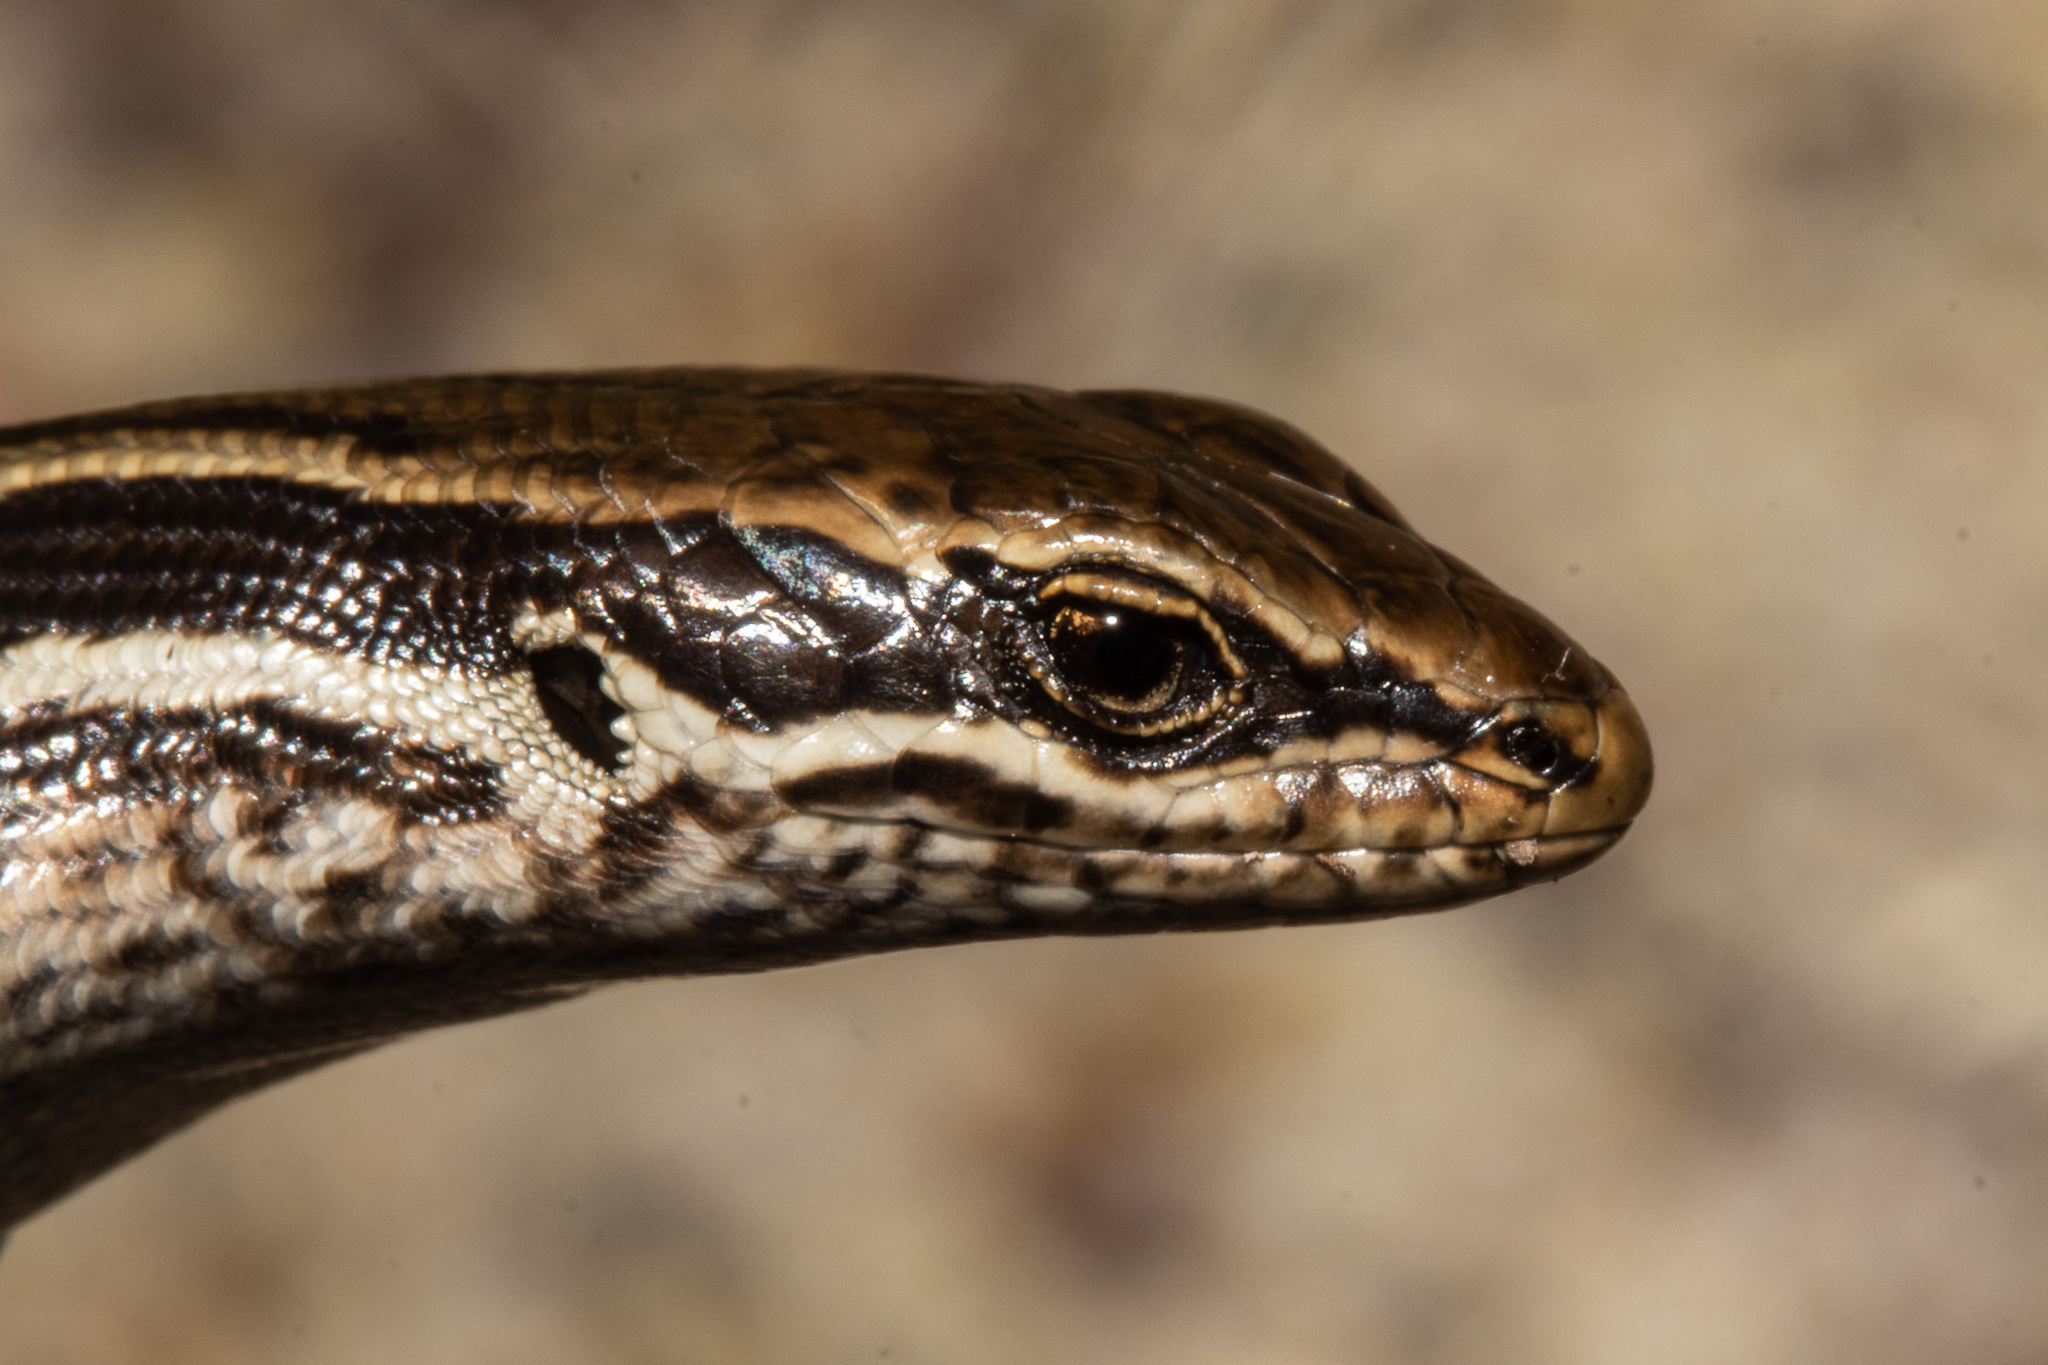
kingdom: Animalia
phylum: Chordata
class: Squamata
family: Scincidae
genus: Oligosoma
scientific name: Oligosoma kahurangi
